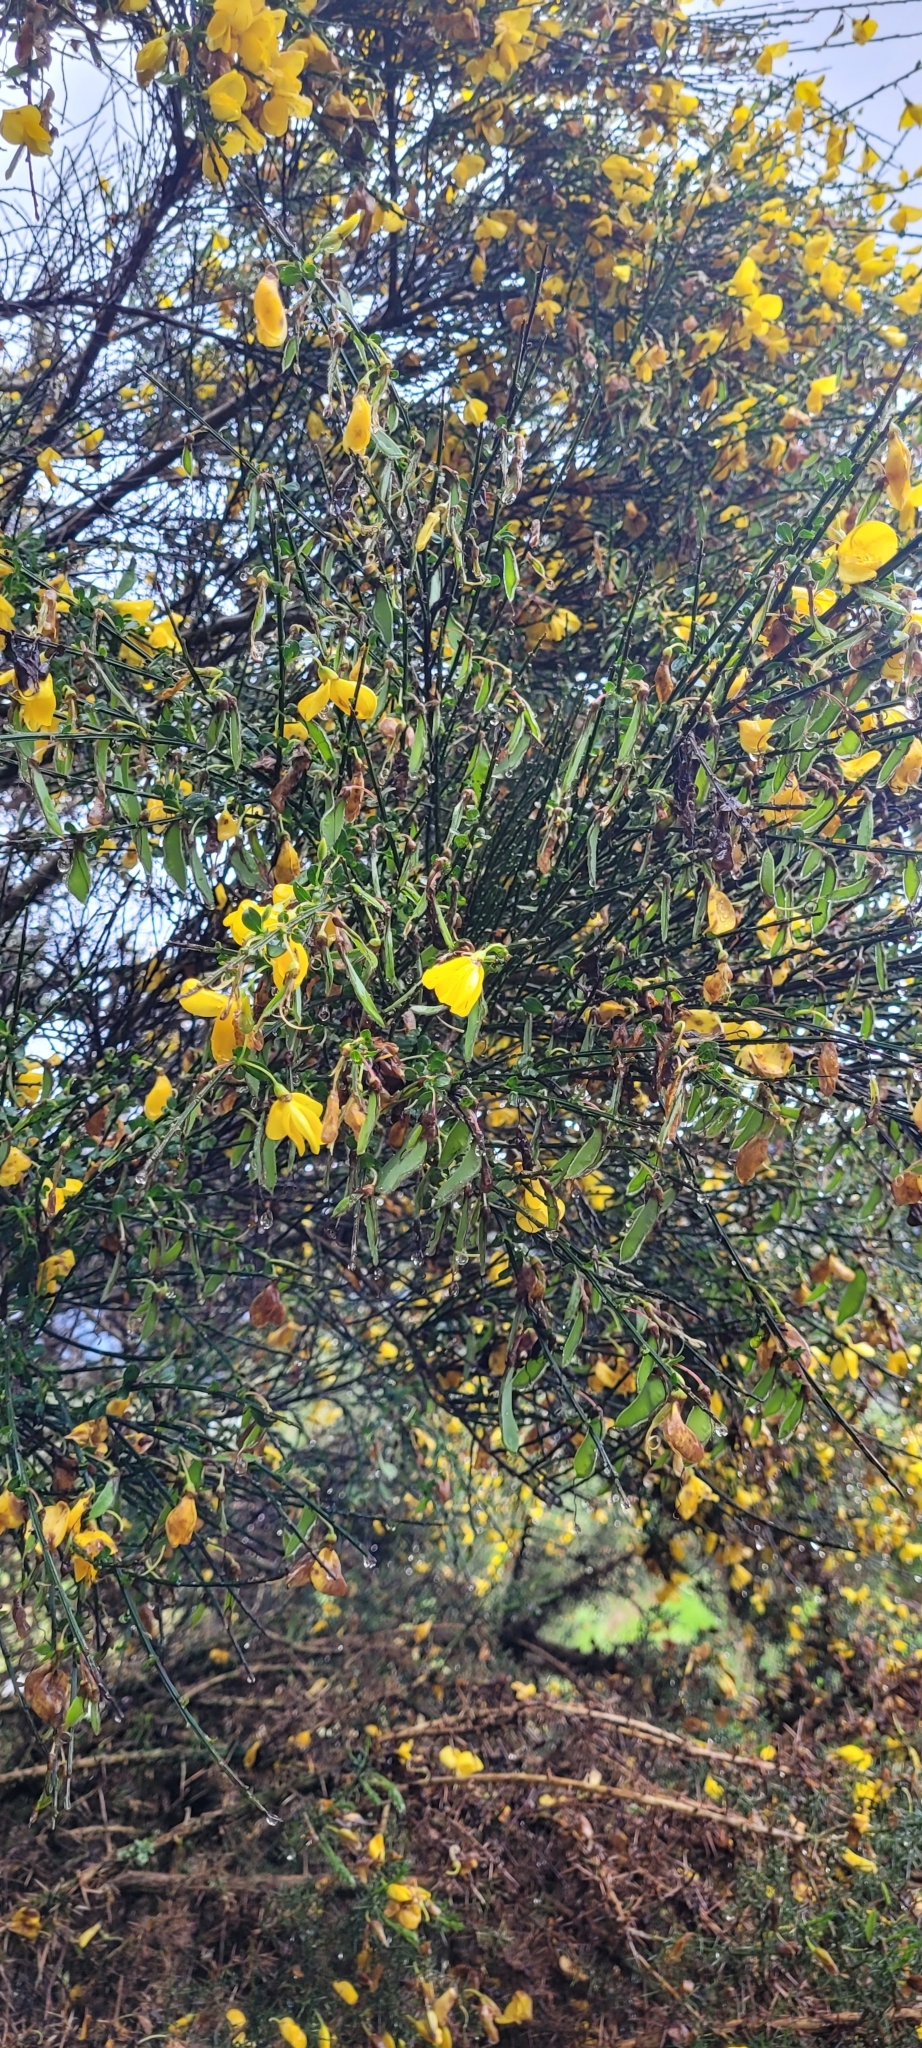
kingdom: Plantae
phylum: Tracheophyta
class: Magnoliopsida
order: Fabales
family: Fabaceae
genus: Cytisus
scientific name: Cytisus scoparius
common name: Scotch broom
